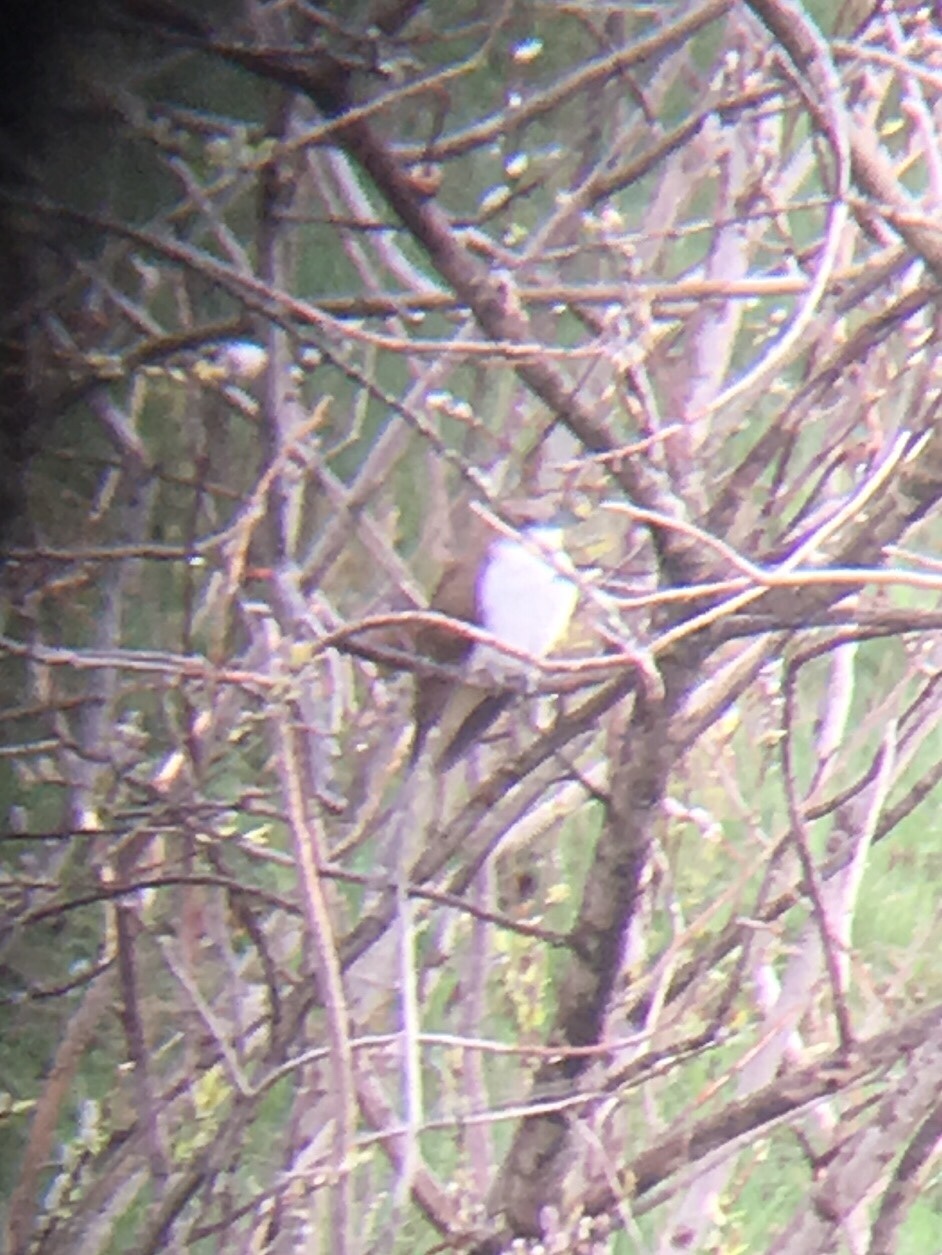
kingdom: Animalia
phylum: Chordata
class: Aves
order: Cuculiformes
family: Cuculidae
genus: Coccyzus
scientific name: Coccyzus erythropthalmus
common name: Black-billed cuckoo
